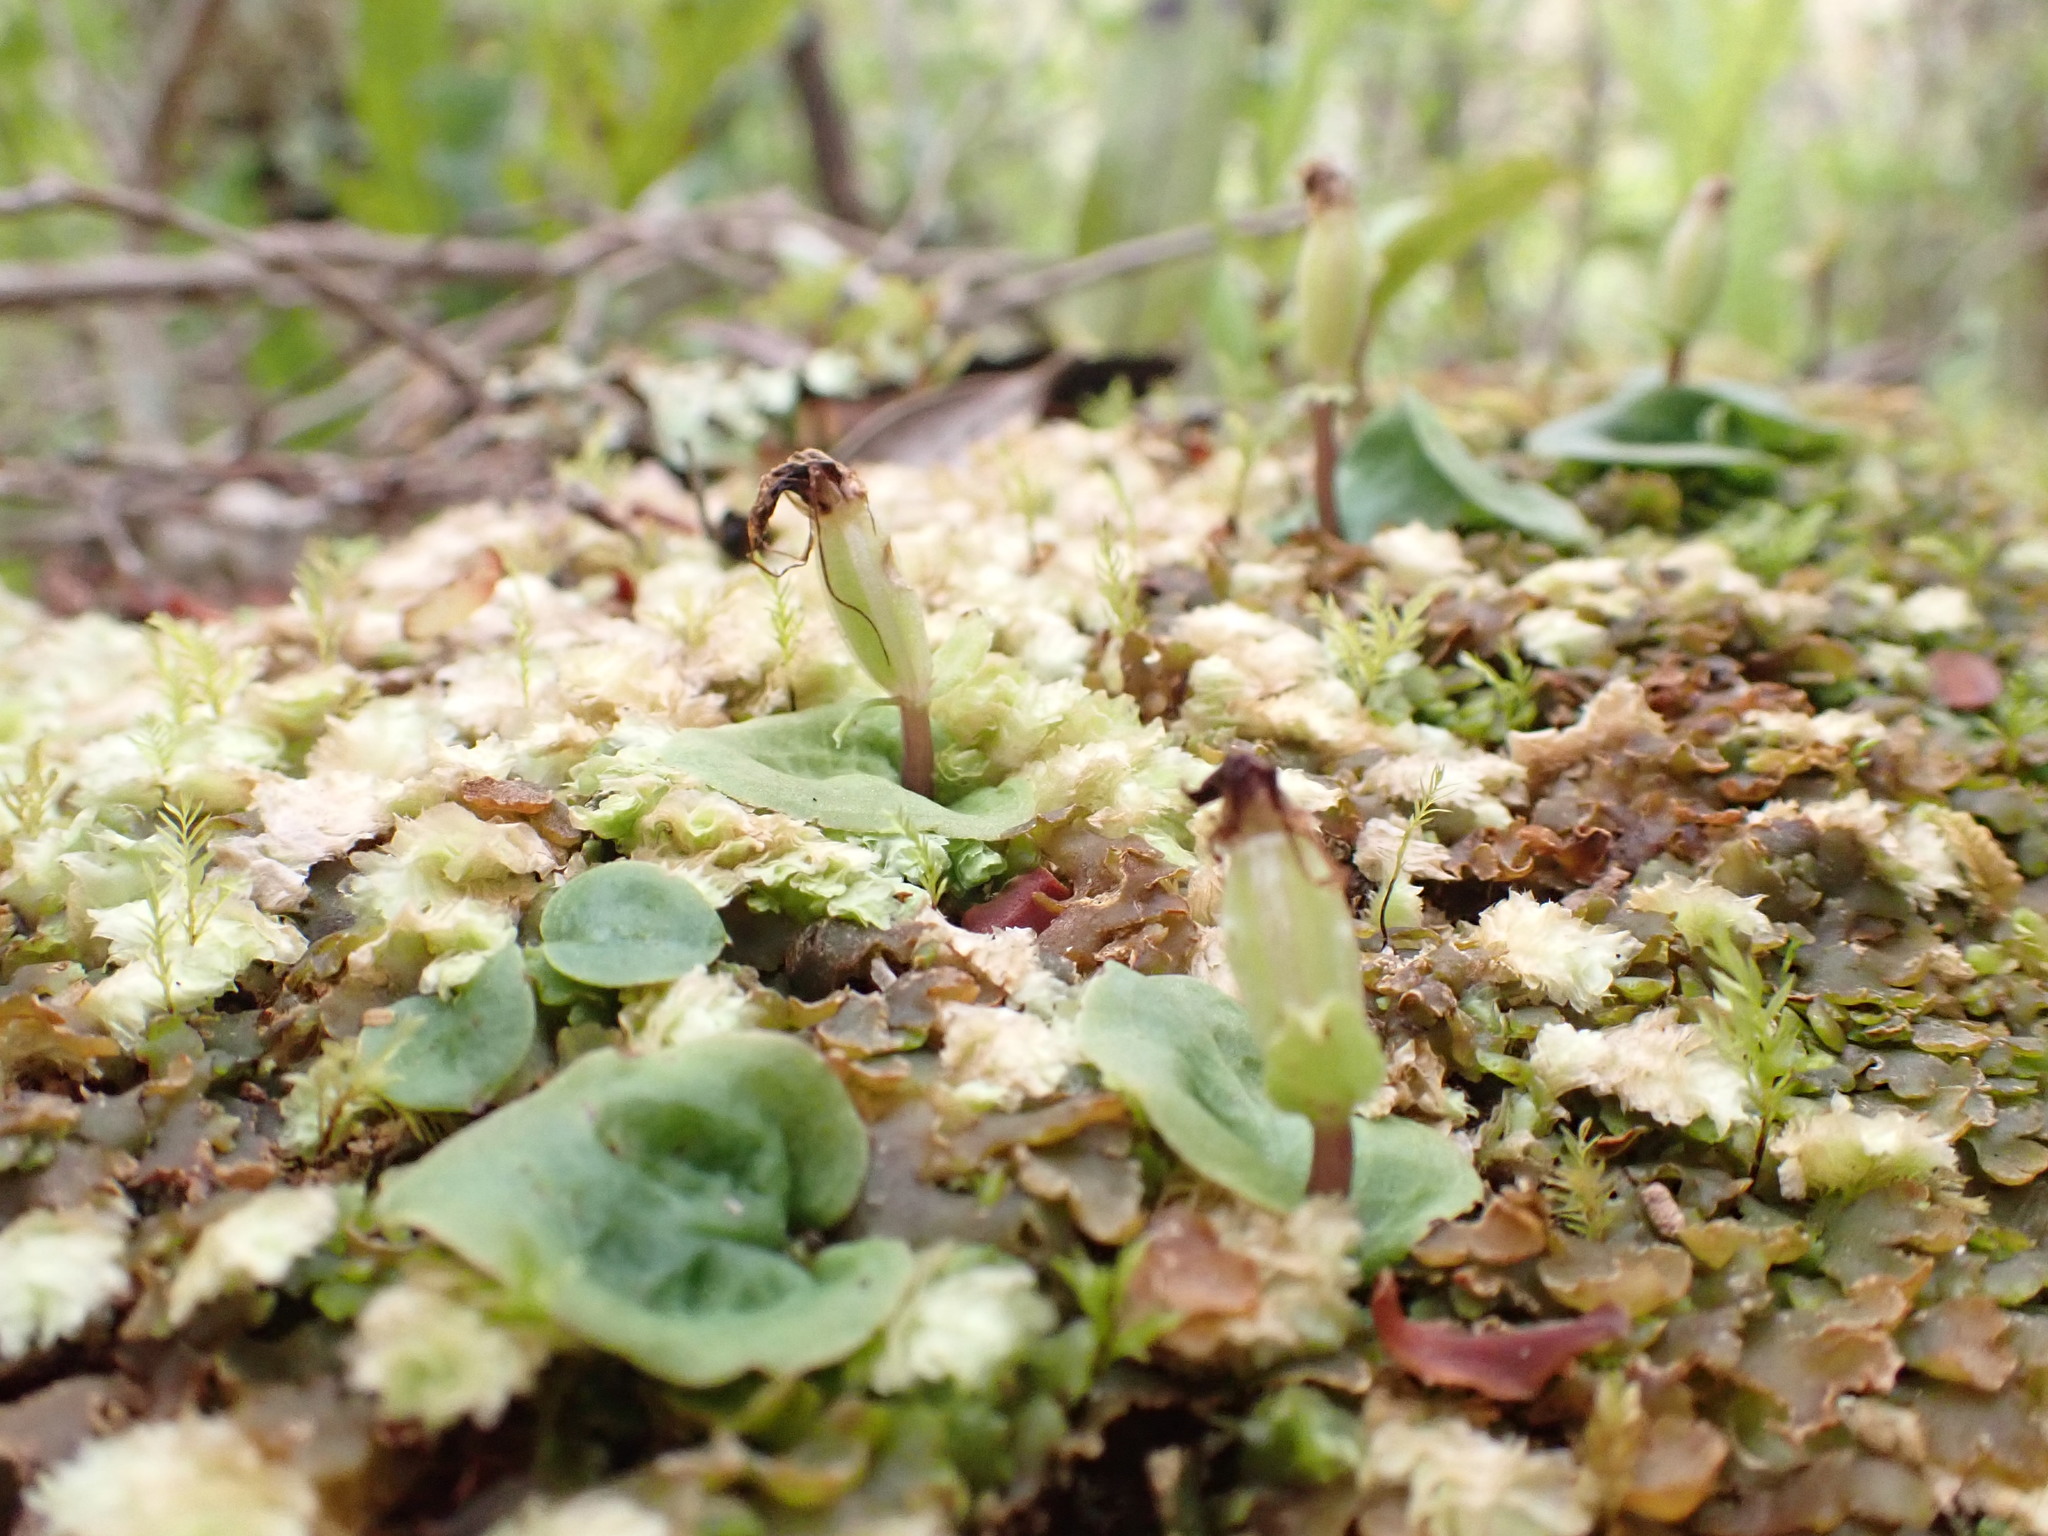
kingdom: Plantae
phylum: Tracheophyta
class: Liliopsida
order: Asparagales
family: Orchidaceae
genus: Corybas
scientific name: Corybas oblongus
